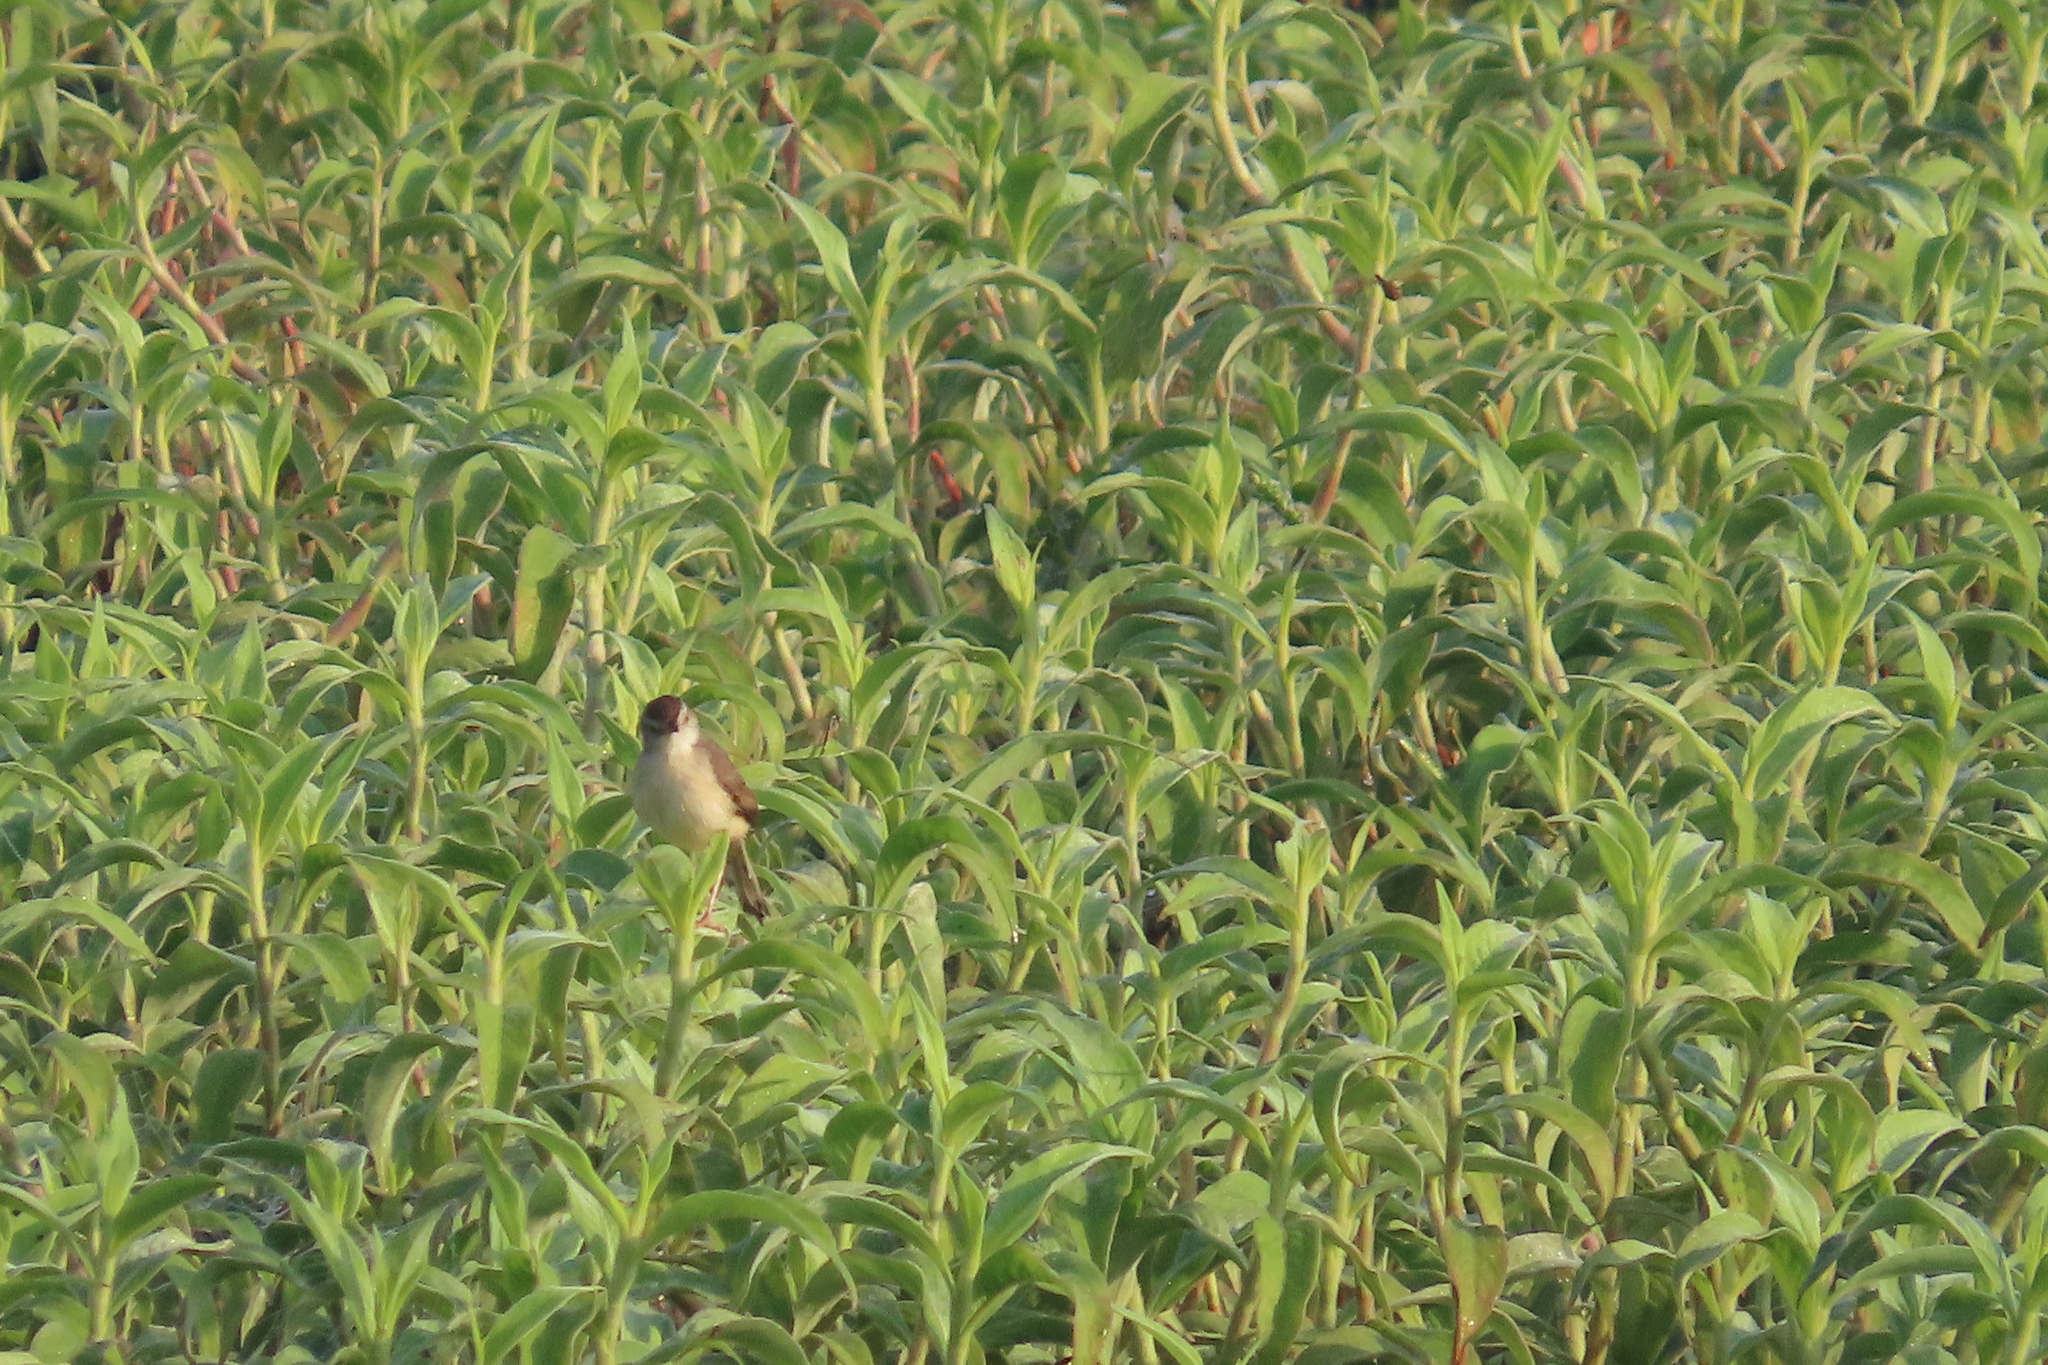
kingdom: Animalia
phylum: Chordata
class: Aves
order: Passeriformes
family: Cisticolidae
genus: Prinia
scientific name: Prinia inornata
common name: Plain prinia
